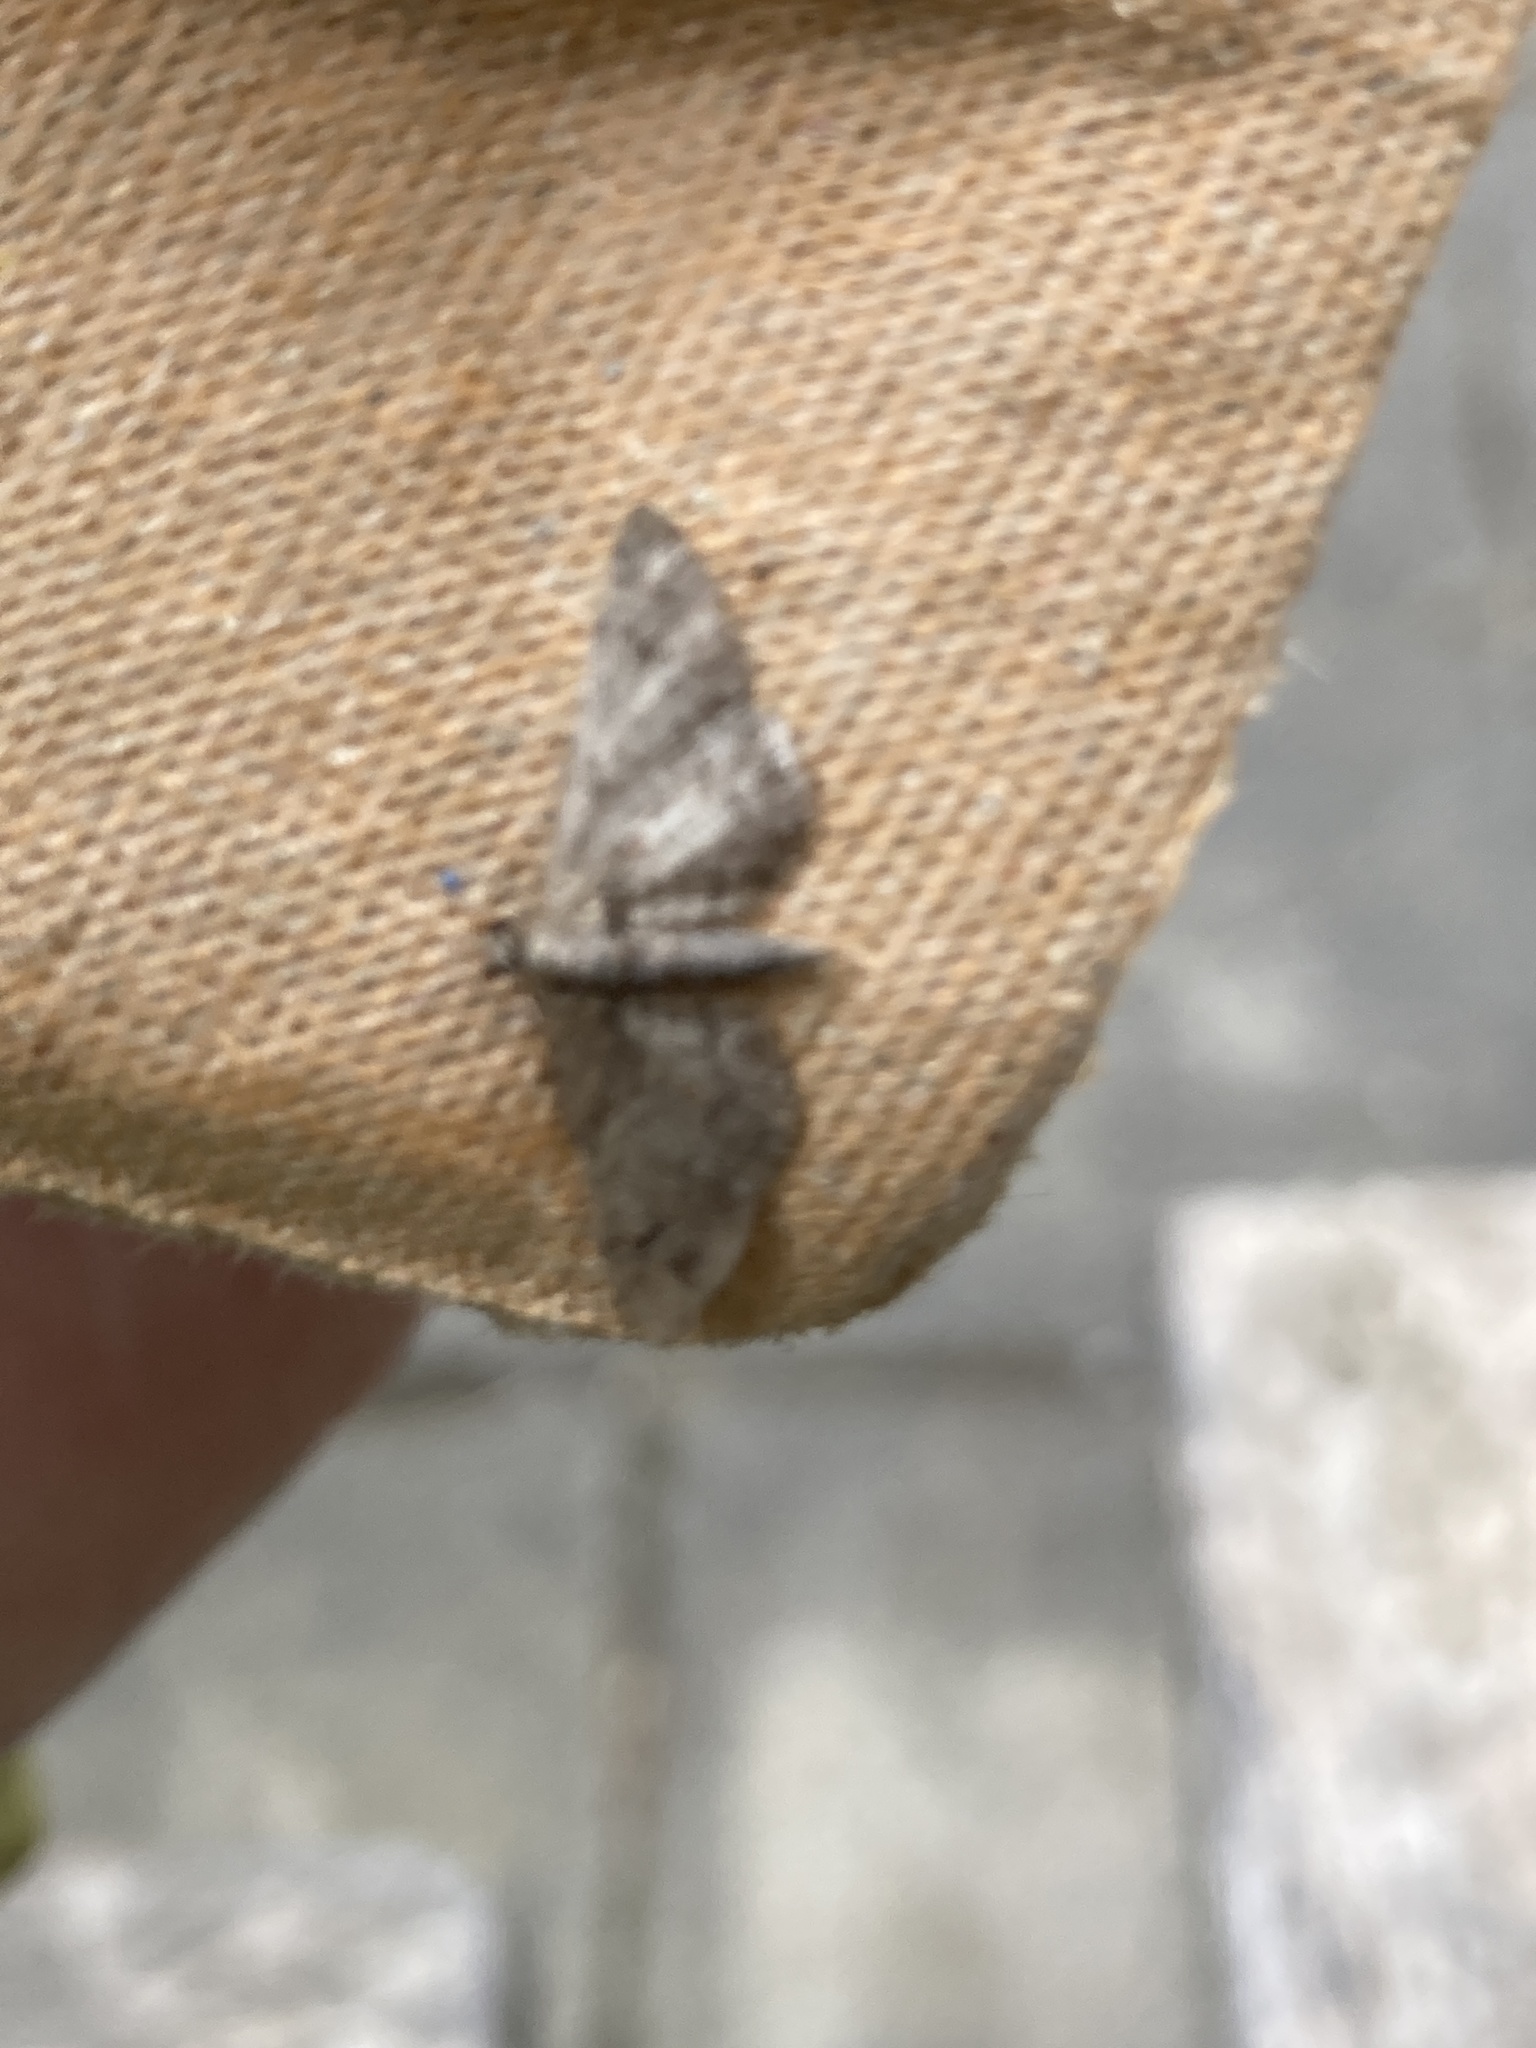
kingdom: Animalia
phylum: Arthropoda
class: Insecta
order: Lepidoptera
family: Geometridae
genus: Gymnoscelis
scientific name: Gymnoscelis rufifasciata
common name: Double-striped pug
